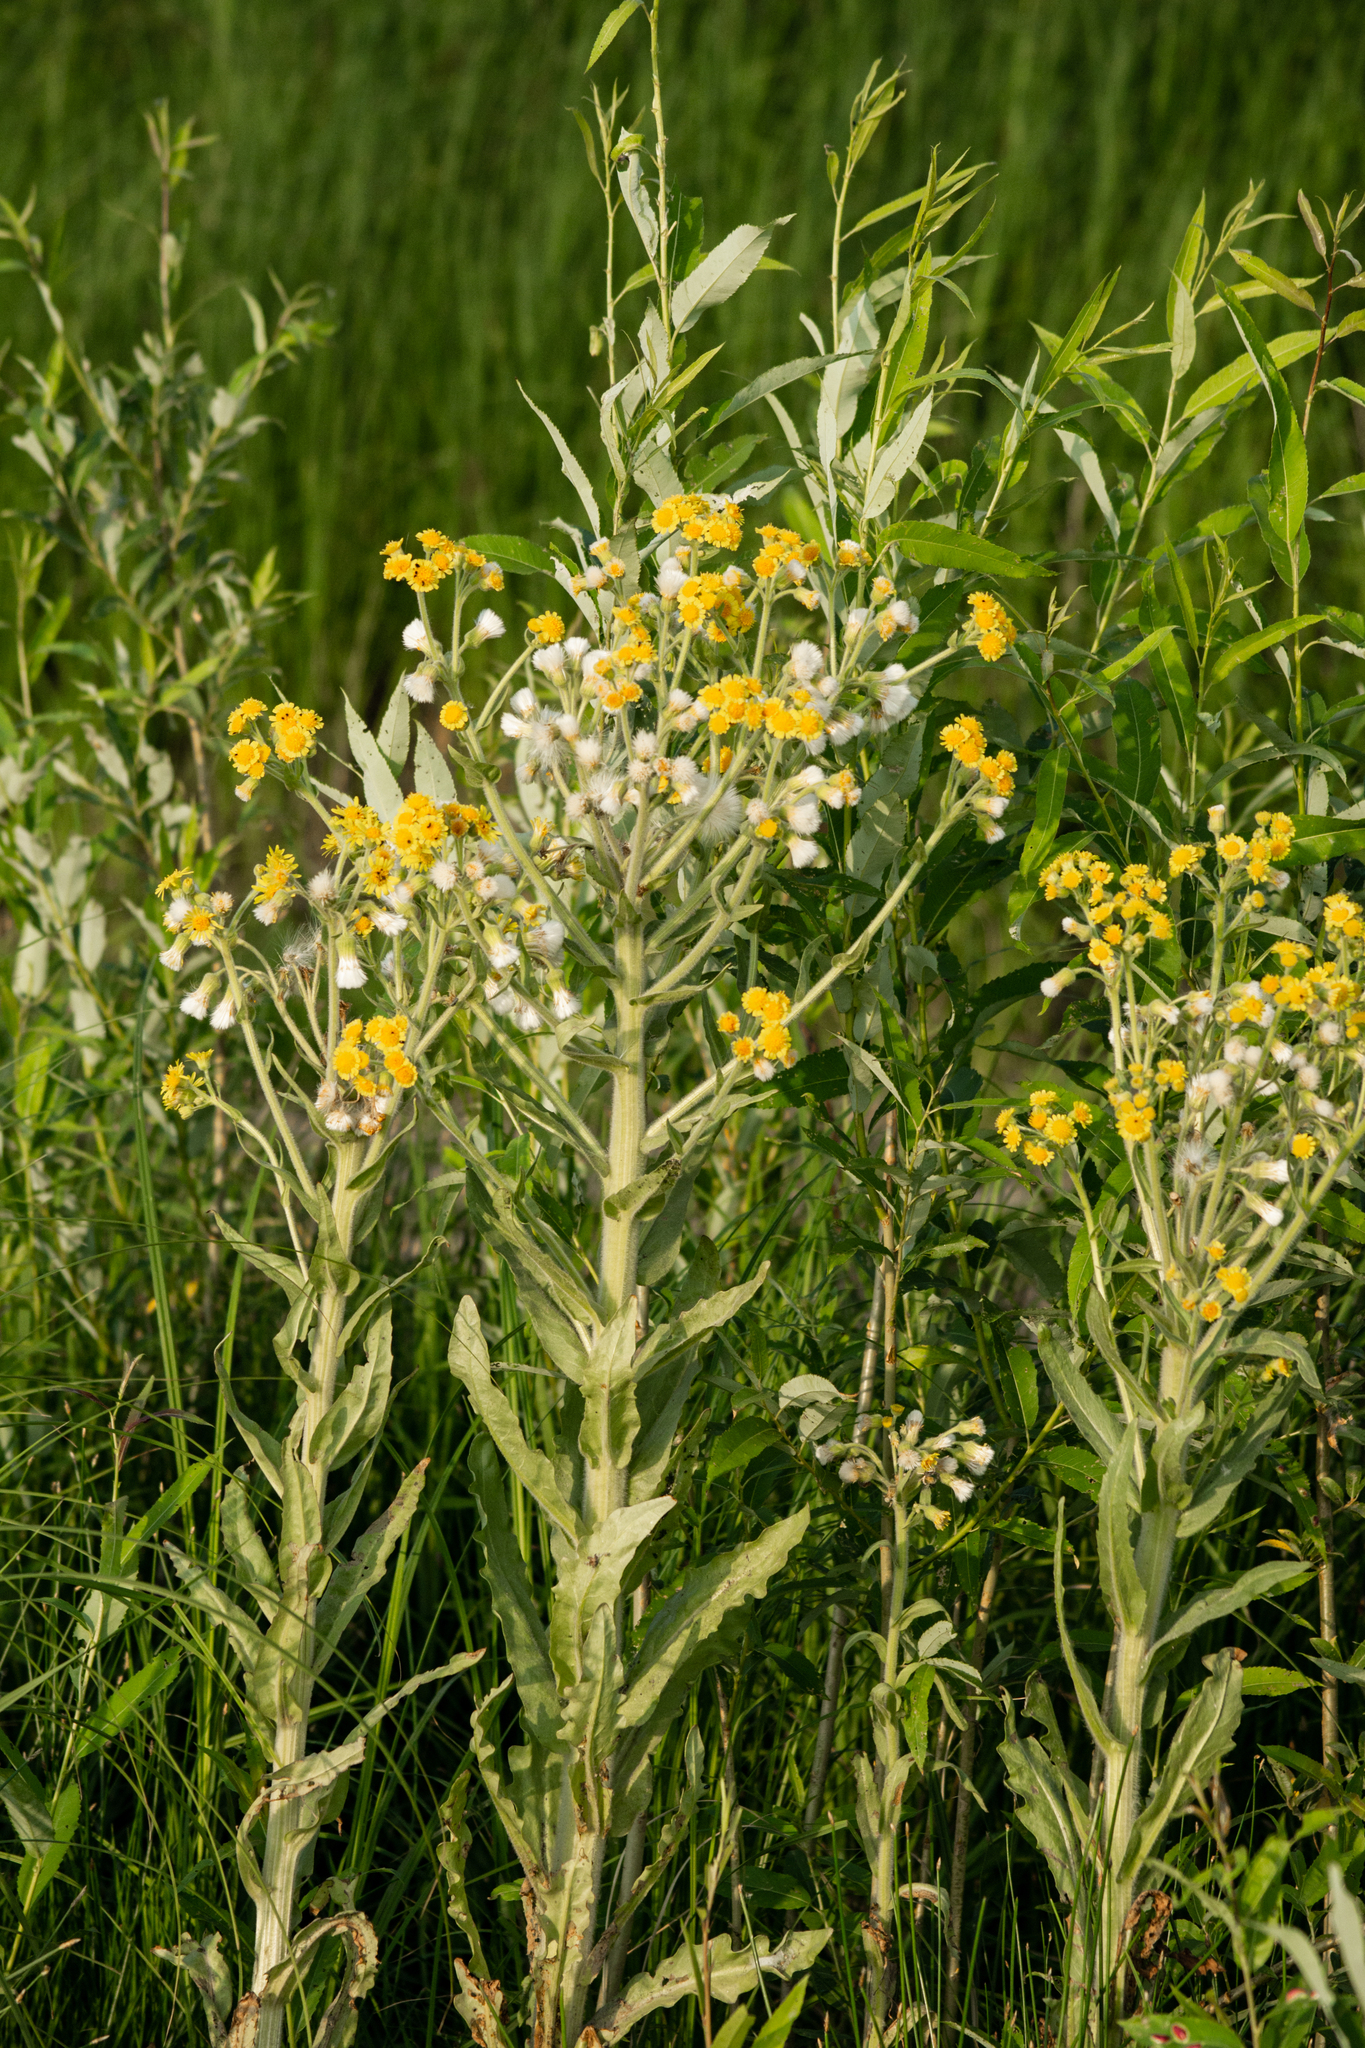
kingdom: Plantae
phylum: Tracheophyta
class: Magnoliopsida
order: Asterales
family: Asteraceae
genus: Tephroseris
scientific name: Tephroseris palustris
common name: Marsh fleawort
